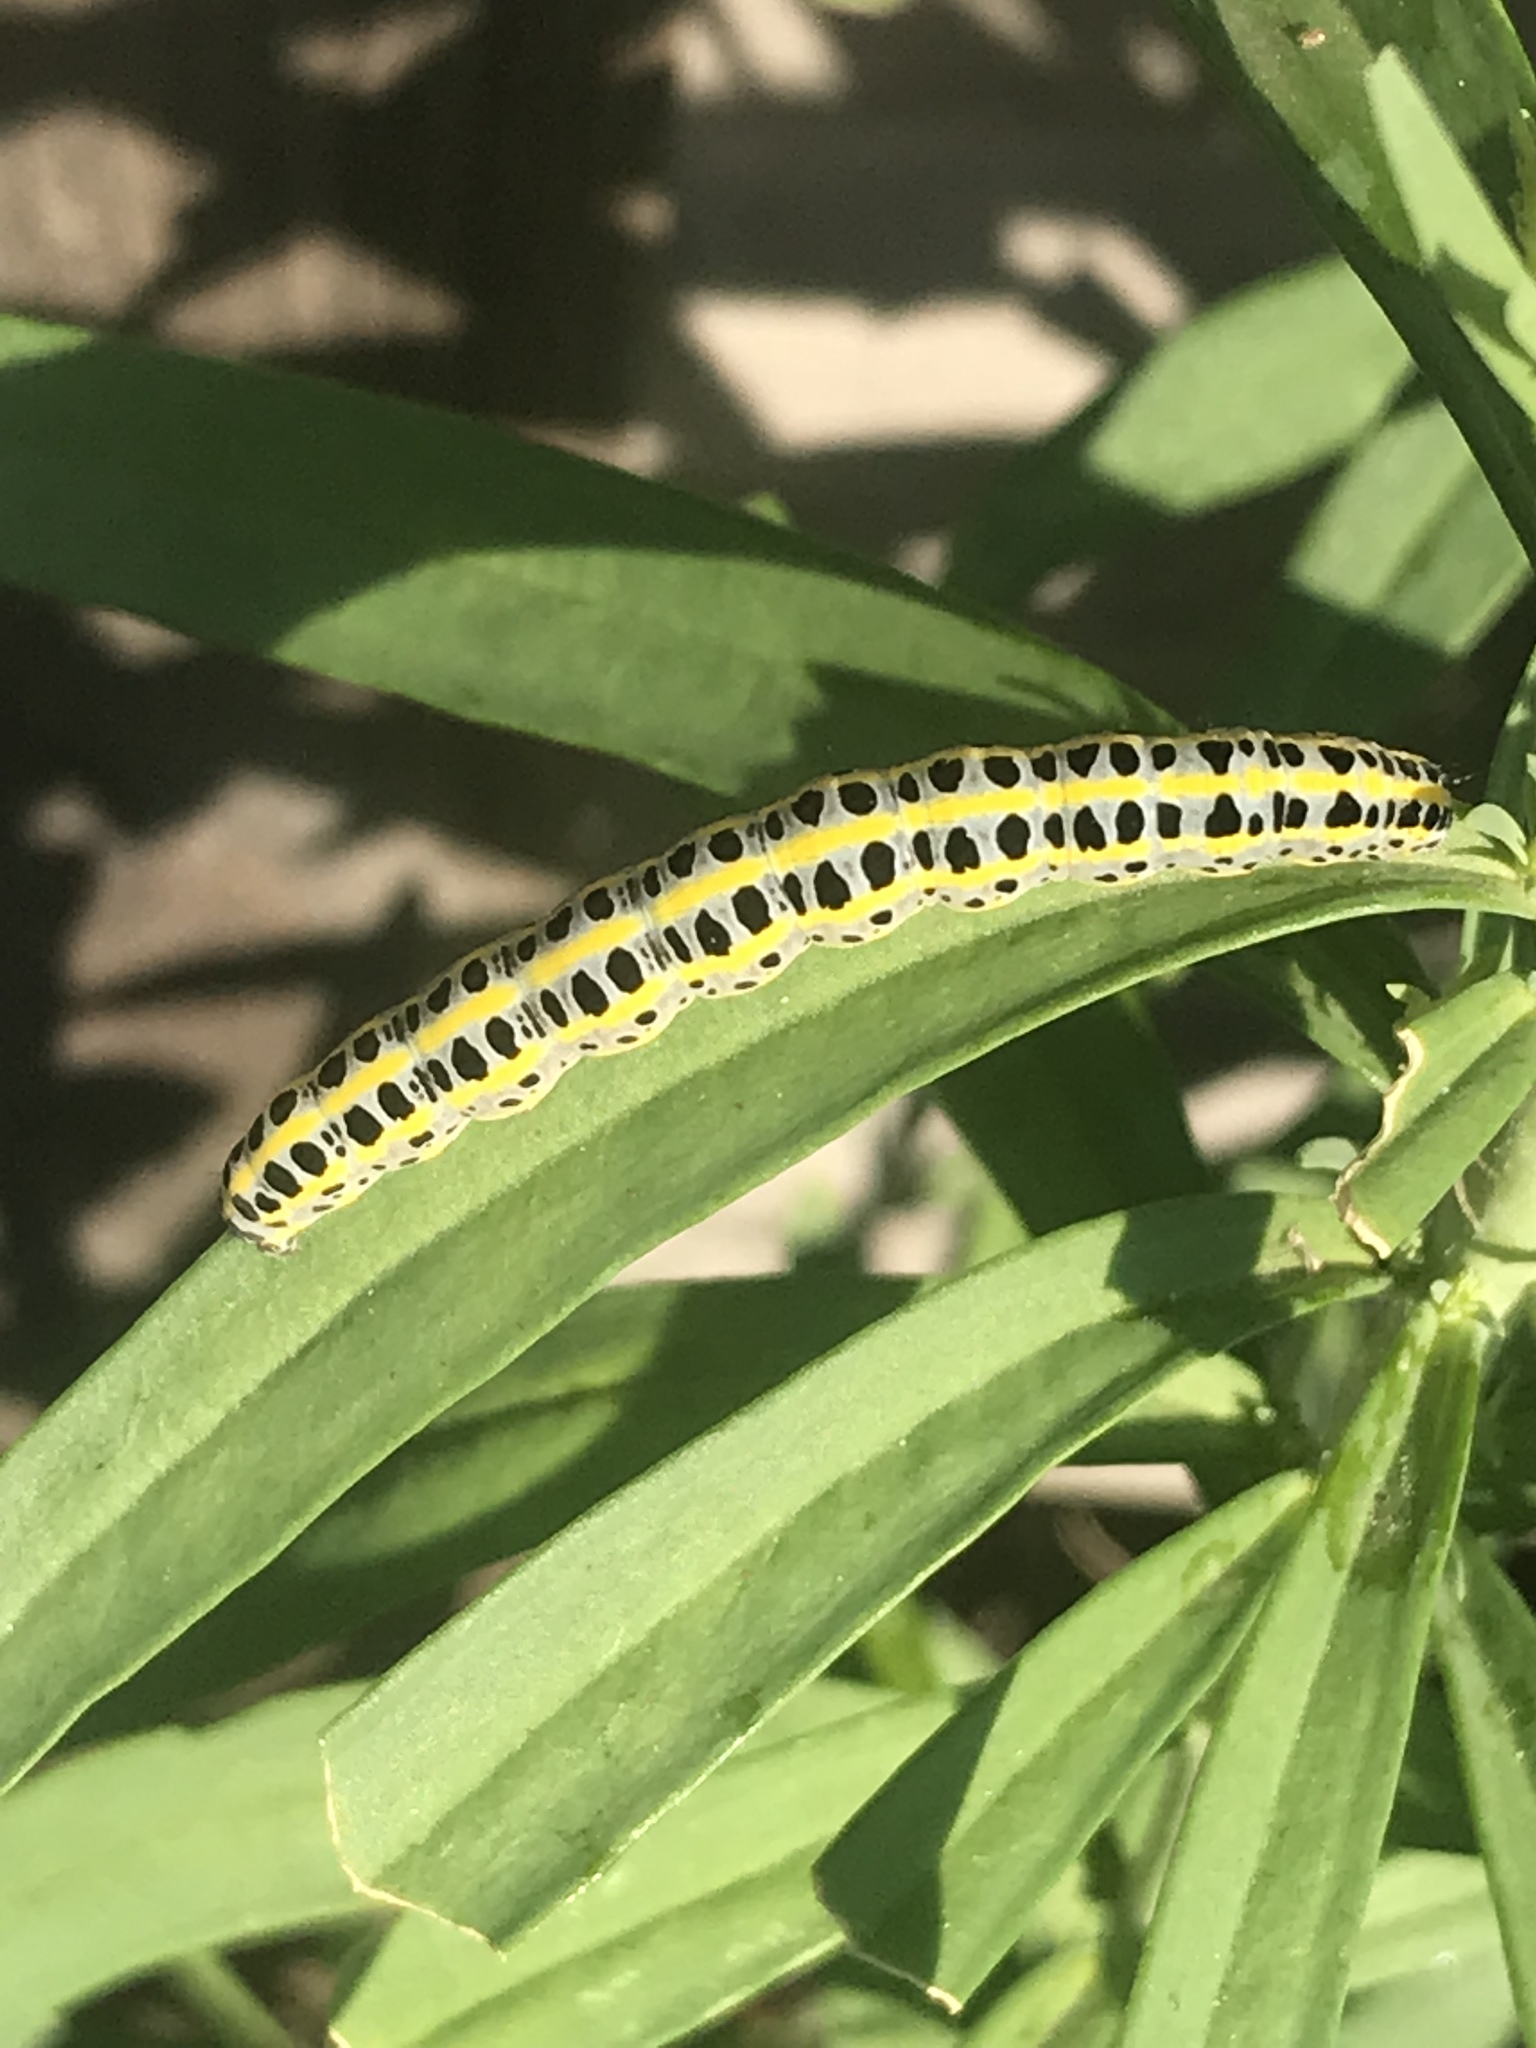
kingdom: Animalia
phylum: Arthropoda
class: Insecta
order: Lepidoptera
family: Noctuidae
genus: Calophasia
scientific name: Calophasia lunula
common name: Toadflax brocade
